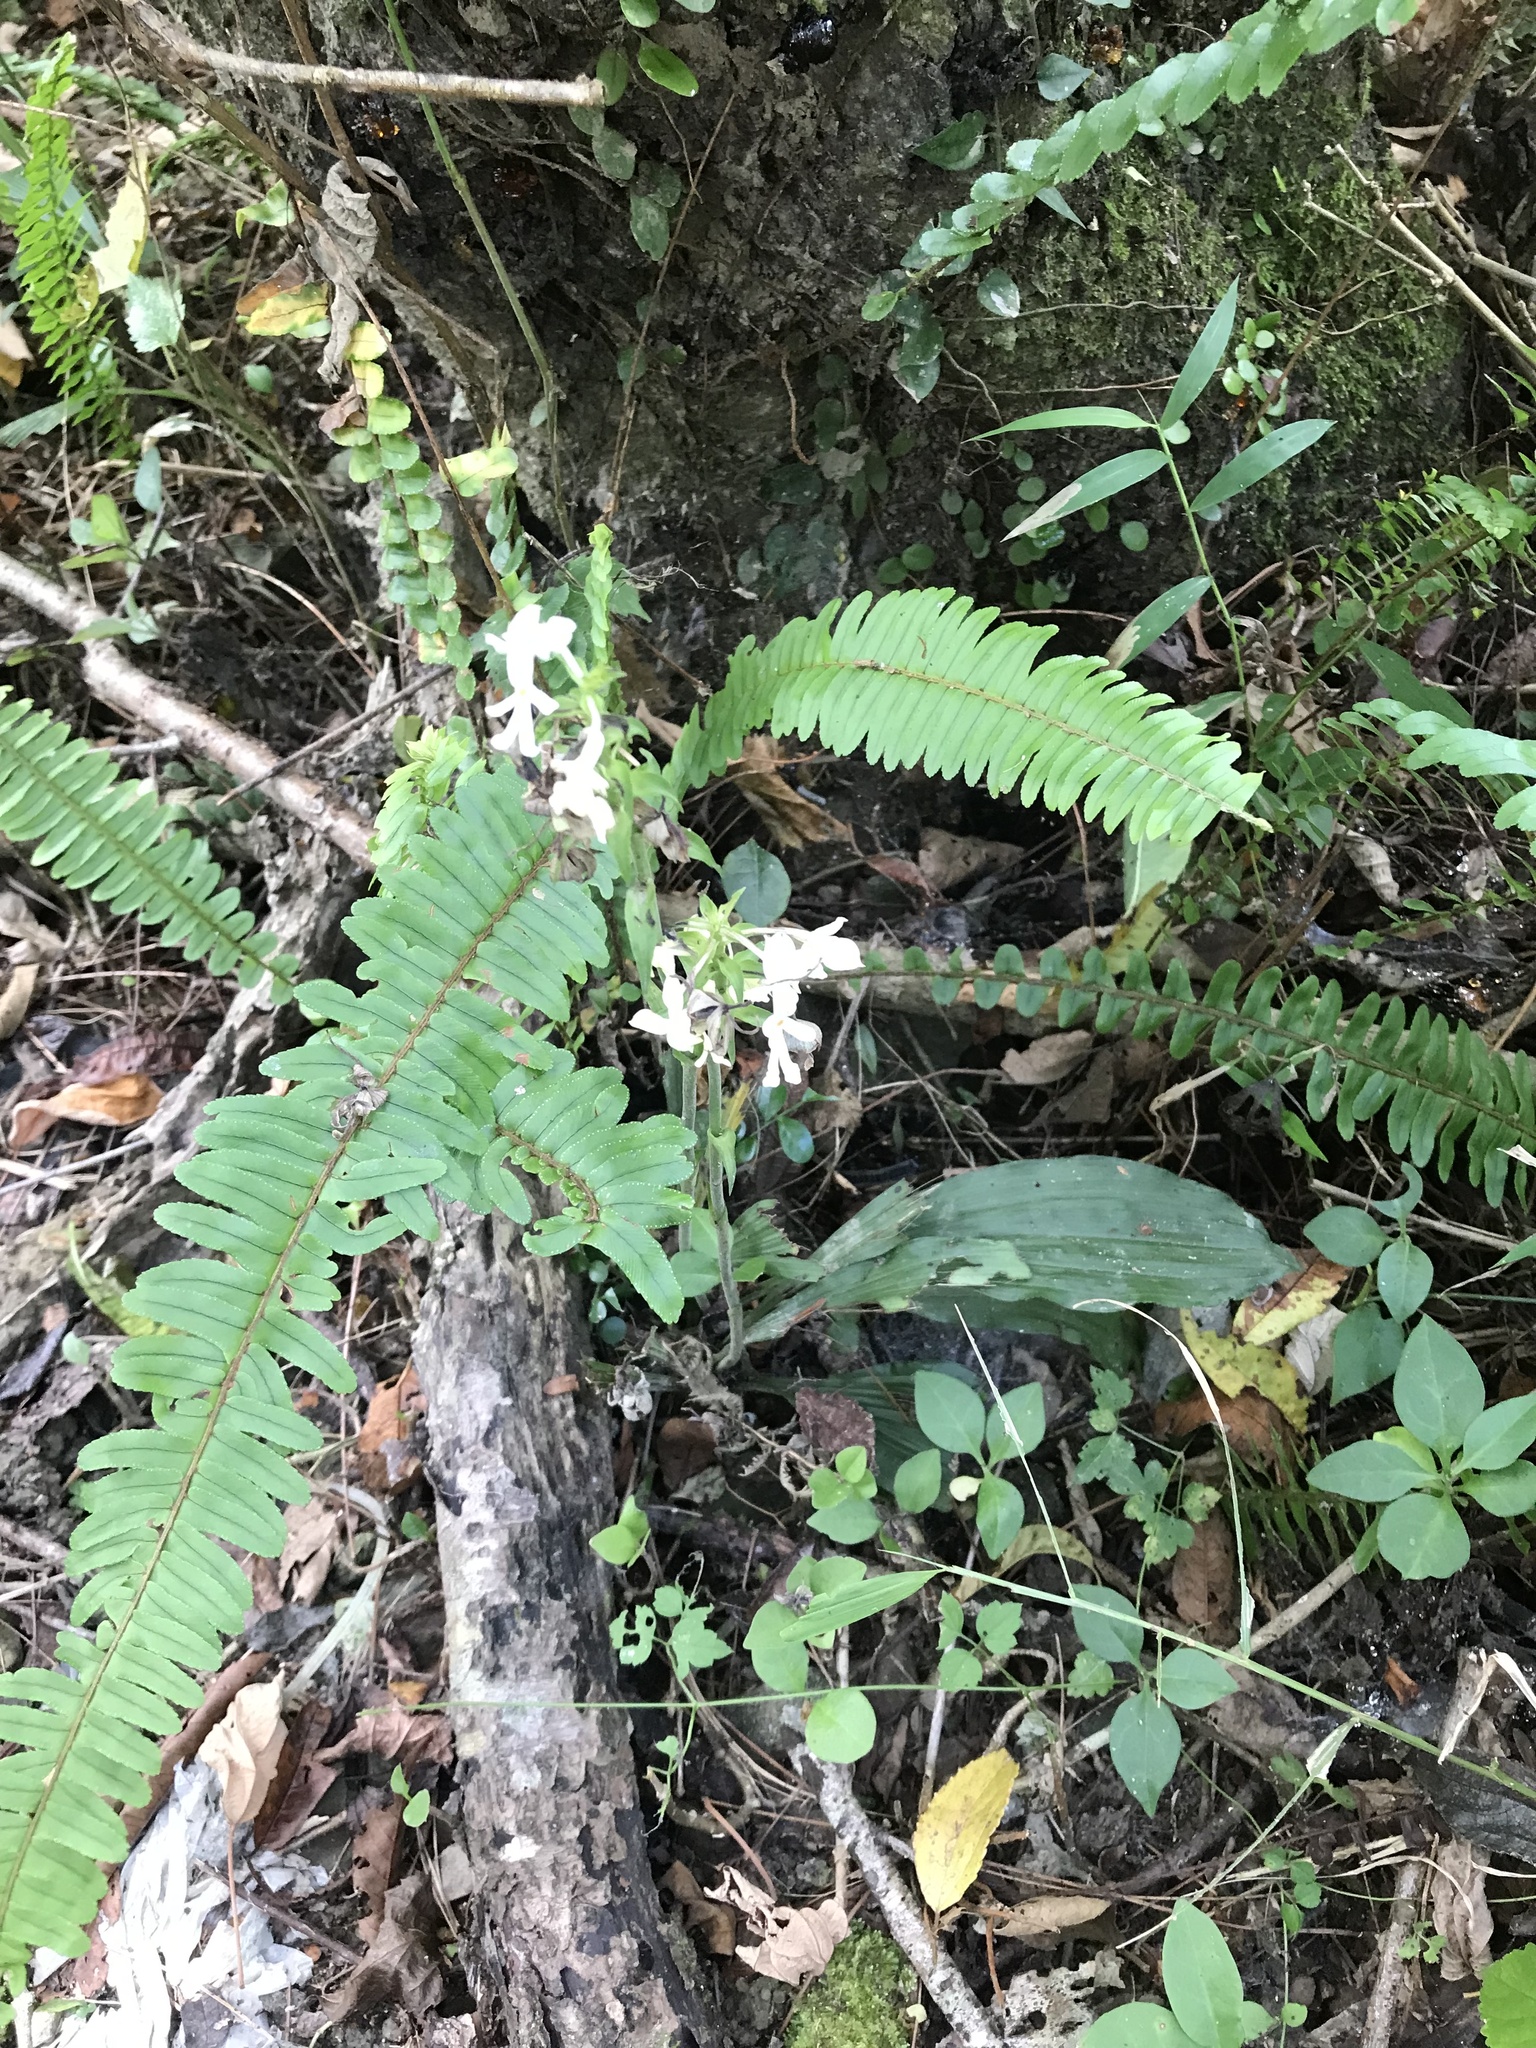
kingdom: Plantae
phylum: Tracheophyta
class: Liliopsida
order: Asparagales
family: Orchidaceae
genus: Calanthe
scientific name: Calanthe triplicata
